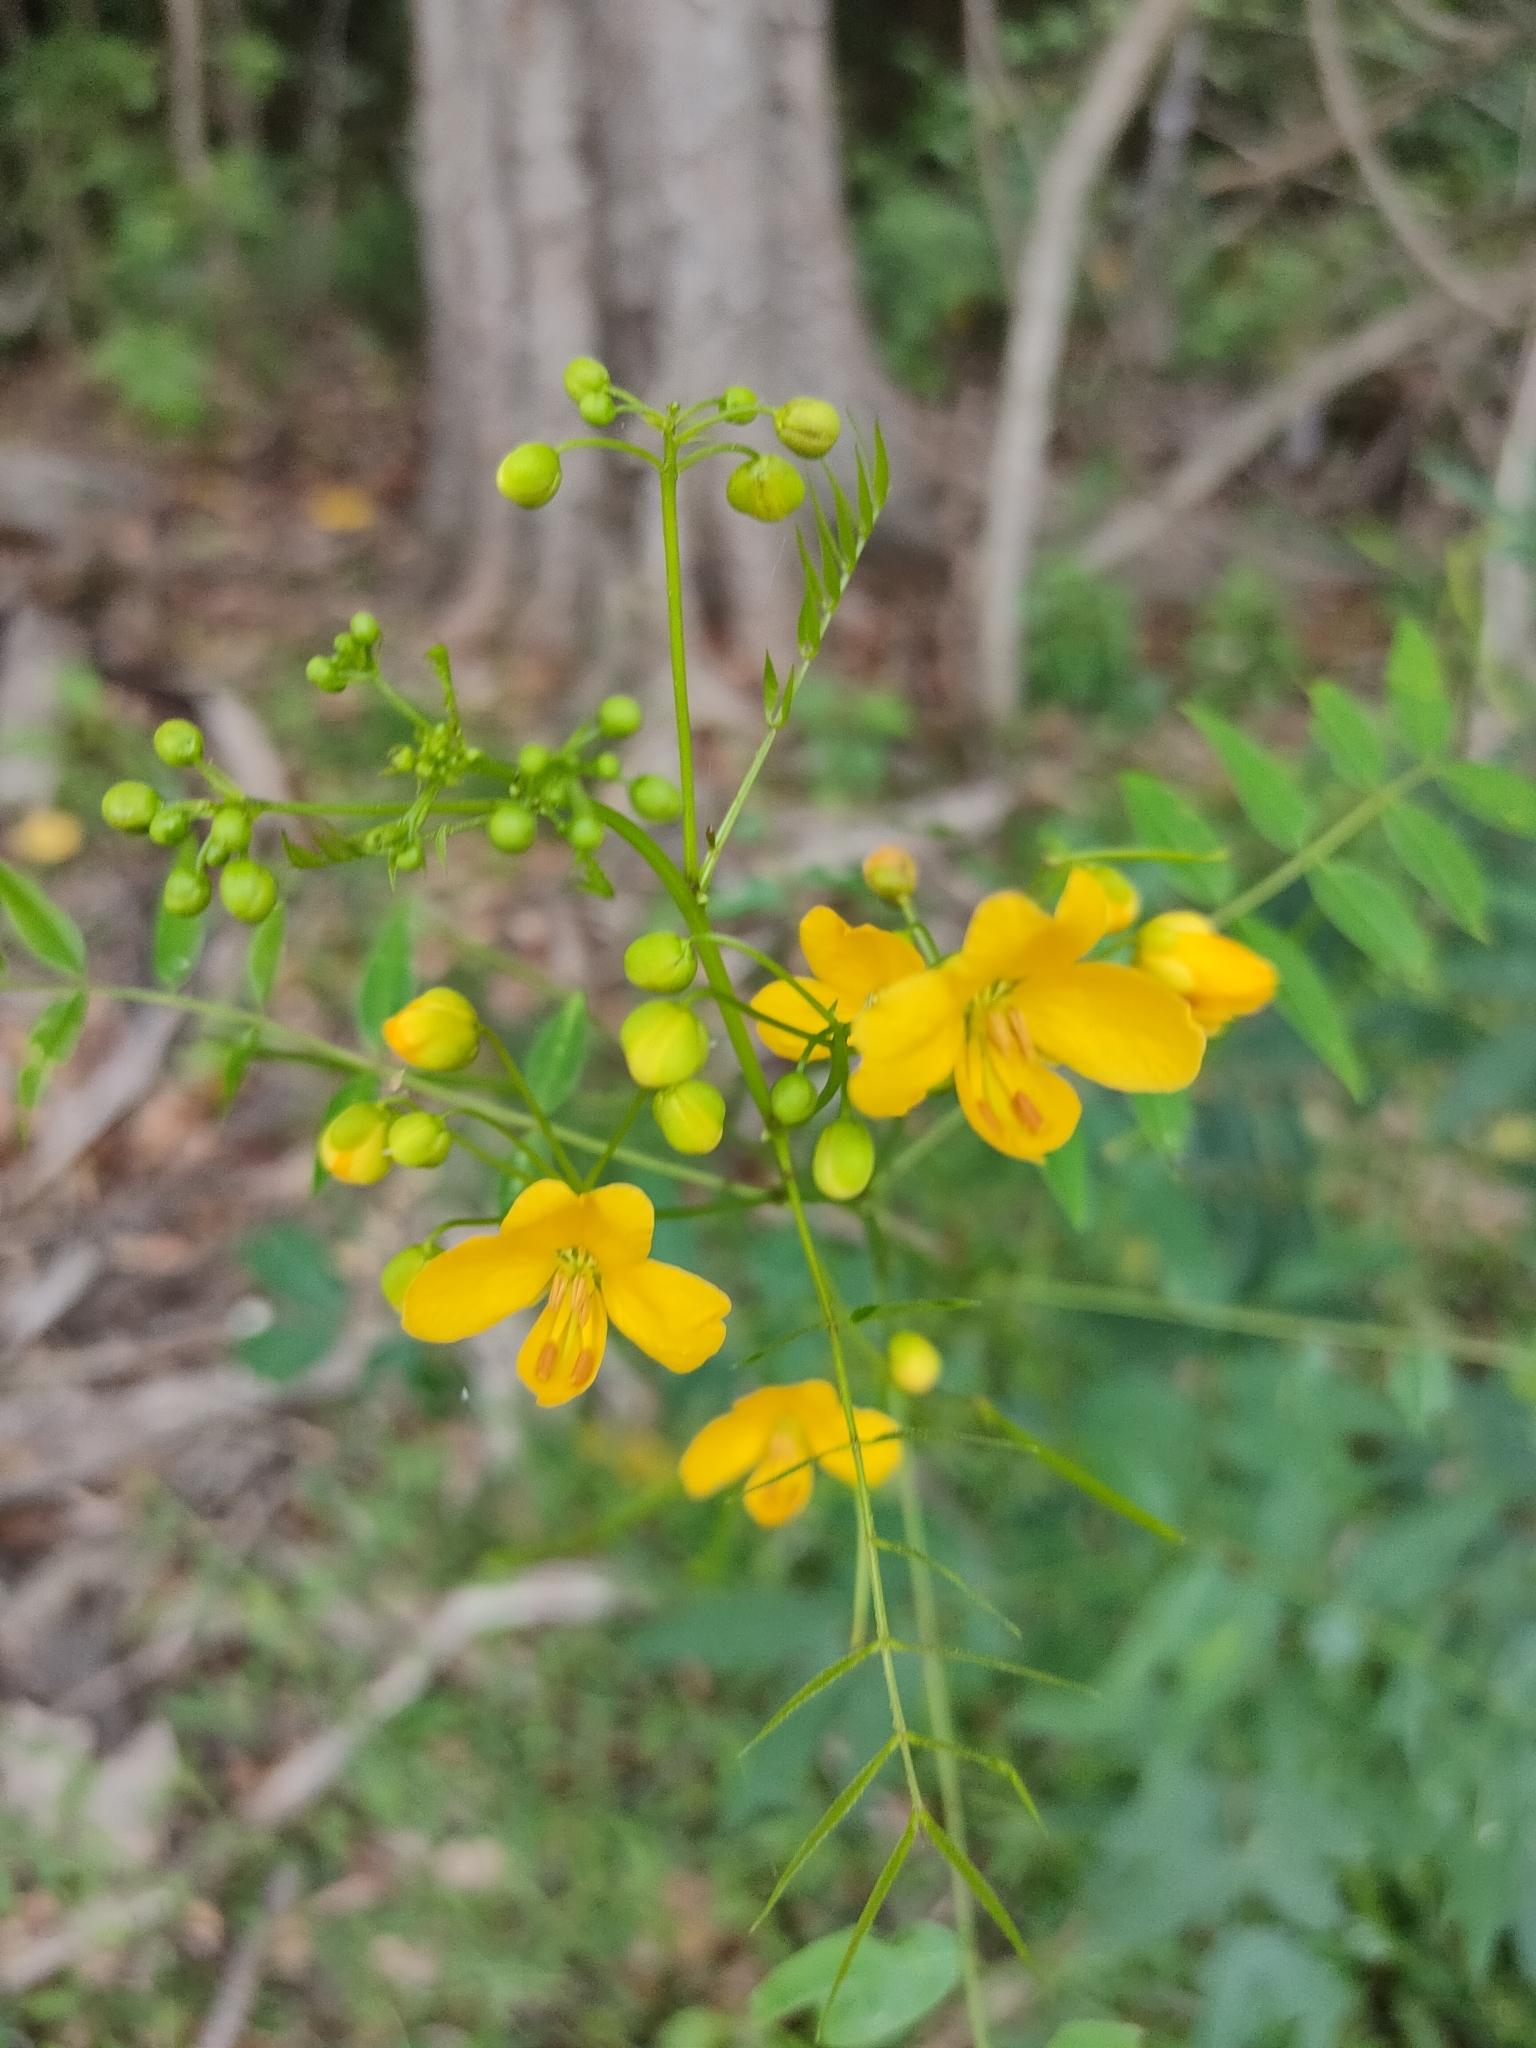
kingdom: Plantae
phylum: Tracheophyta
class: Magnoliopsida
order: Fabales
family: Fabaceae
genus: Senna
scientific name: Senna sophera
